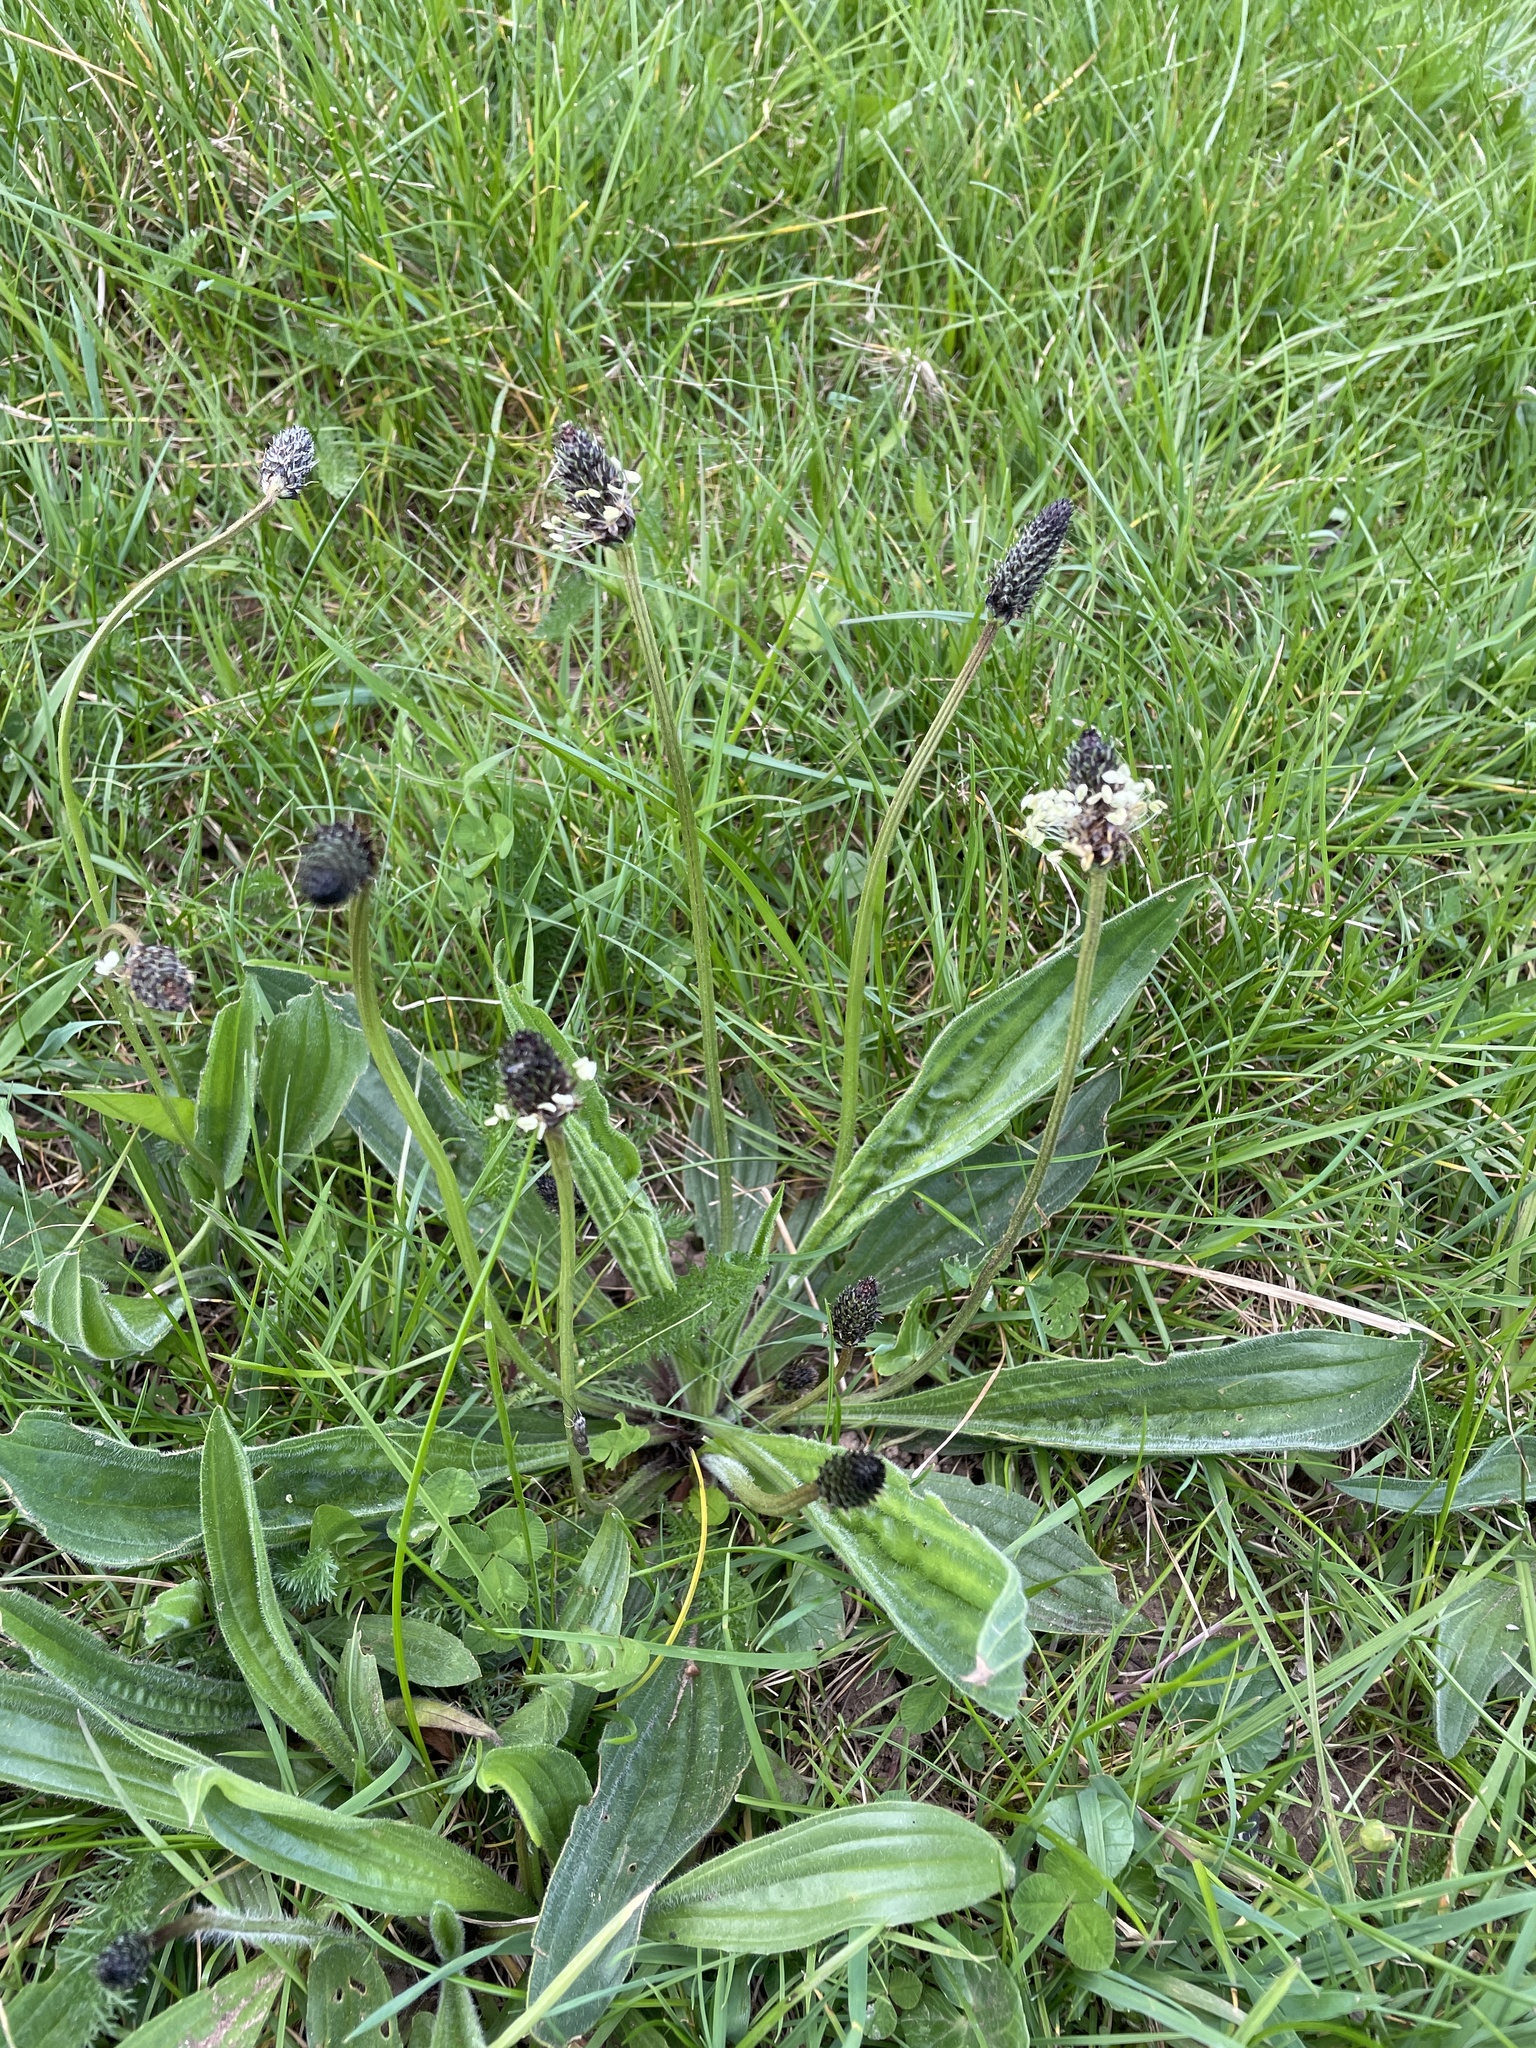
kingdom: Plantae
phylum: Tracheophyta
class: Magnoliopsida
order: Lamiales
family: Plantaginaceae
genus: Plantago
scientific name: Plantago lanceolata
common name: Ribwort plantain
